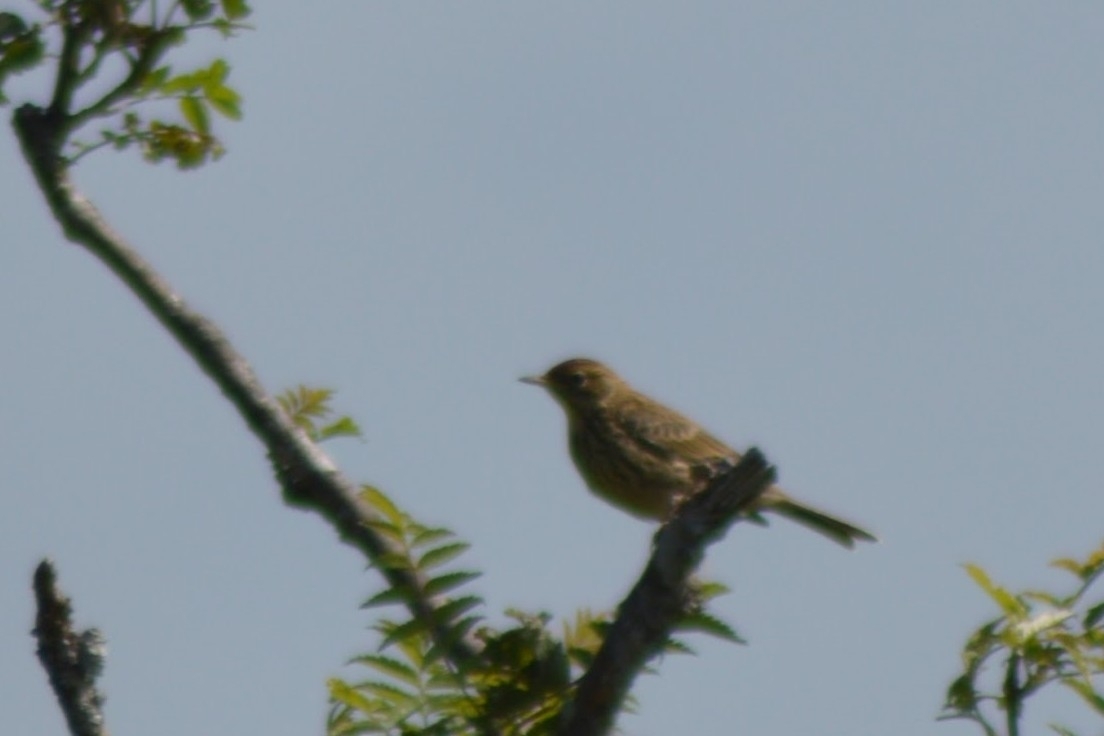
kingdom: Animalia
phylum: Chordata
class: Aves
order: Passeriformes
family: Motacillidae
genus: Anthus
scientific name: Anthus pratensis
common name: Meadow pipit
